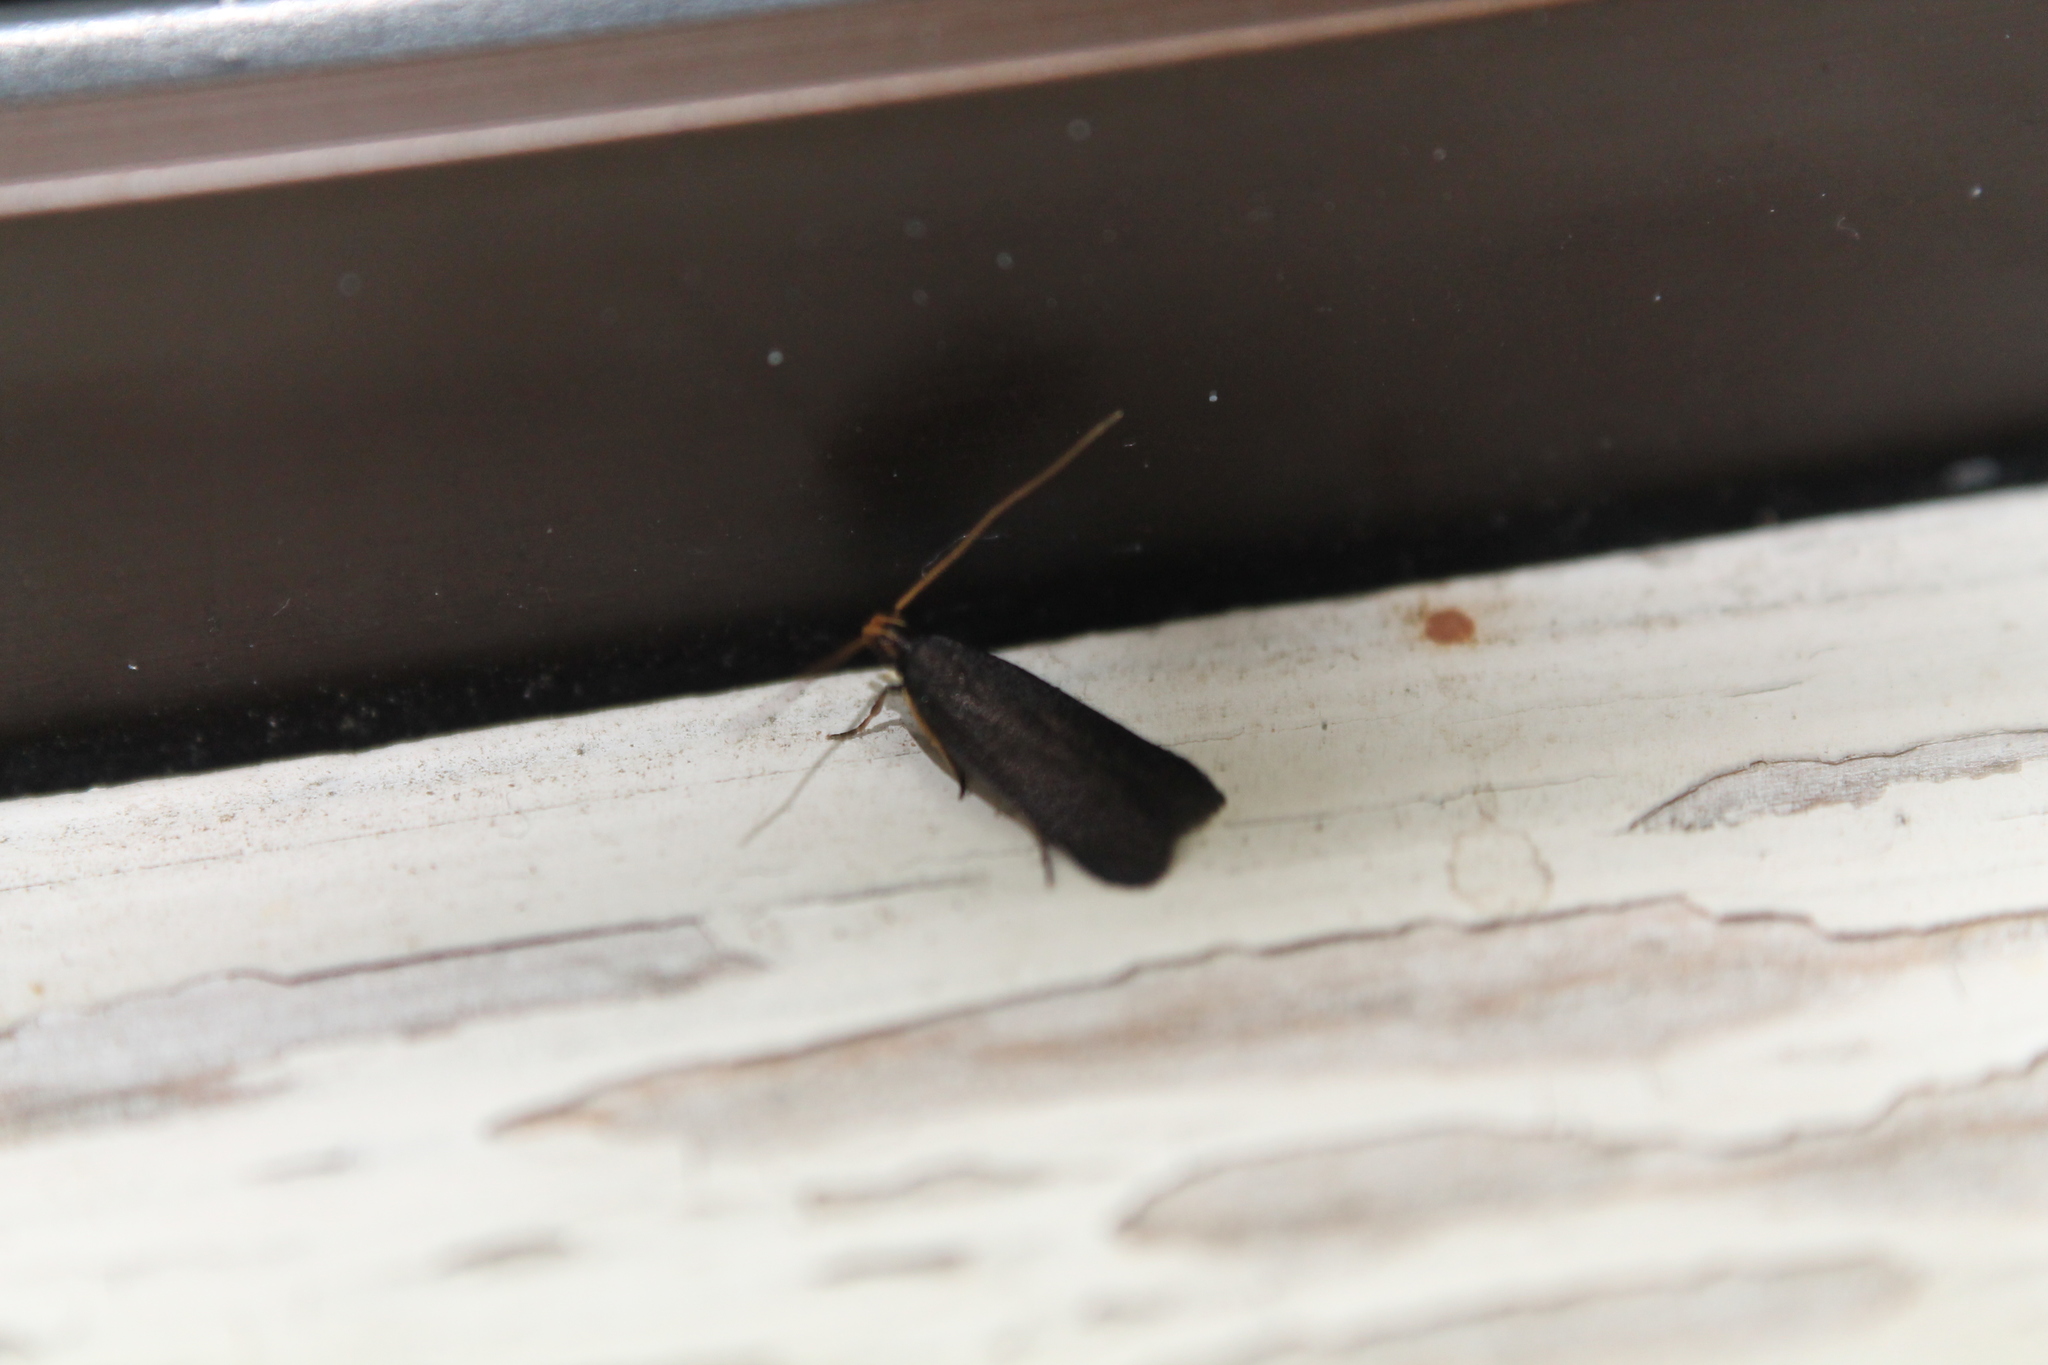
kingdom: Animalia
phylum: Arthropoda
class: Insecta
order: Lepidoptera
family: Lecithoceridae
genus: Lecithocera
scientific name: Lecithocera micromela
